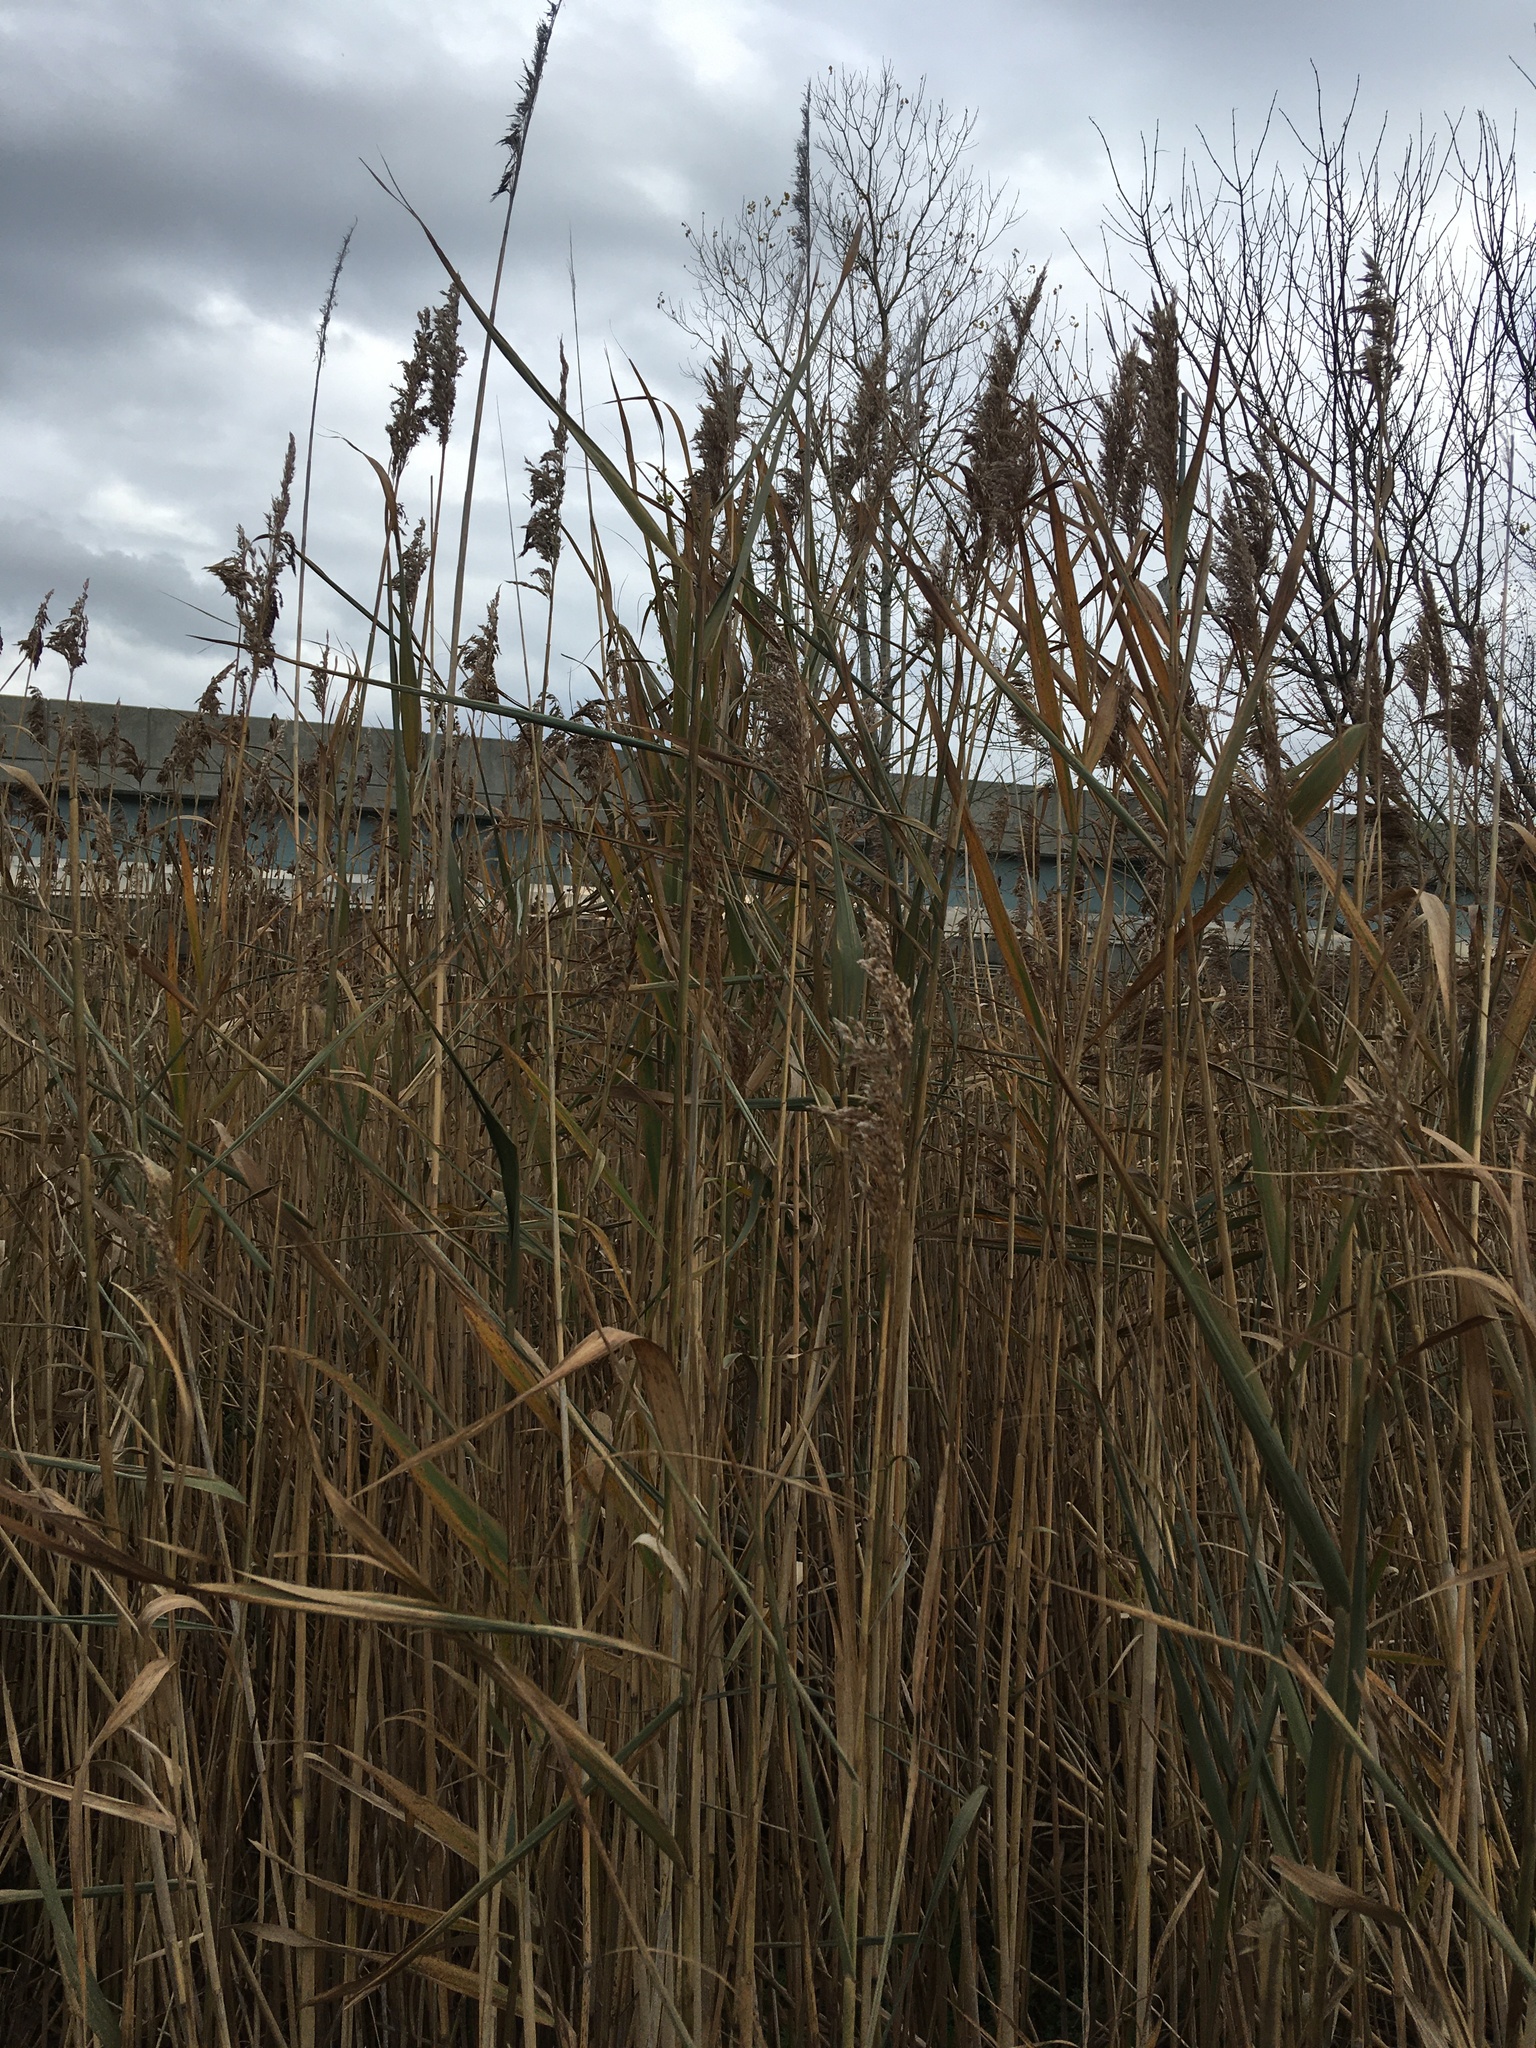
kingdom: Plantae
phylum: Tracheophyta
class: Liliopsida
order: Poales
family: Poaceae
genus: Phragmites
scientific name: Phragmites australis
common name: Common reed
